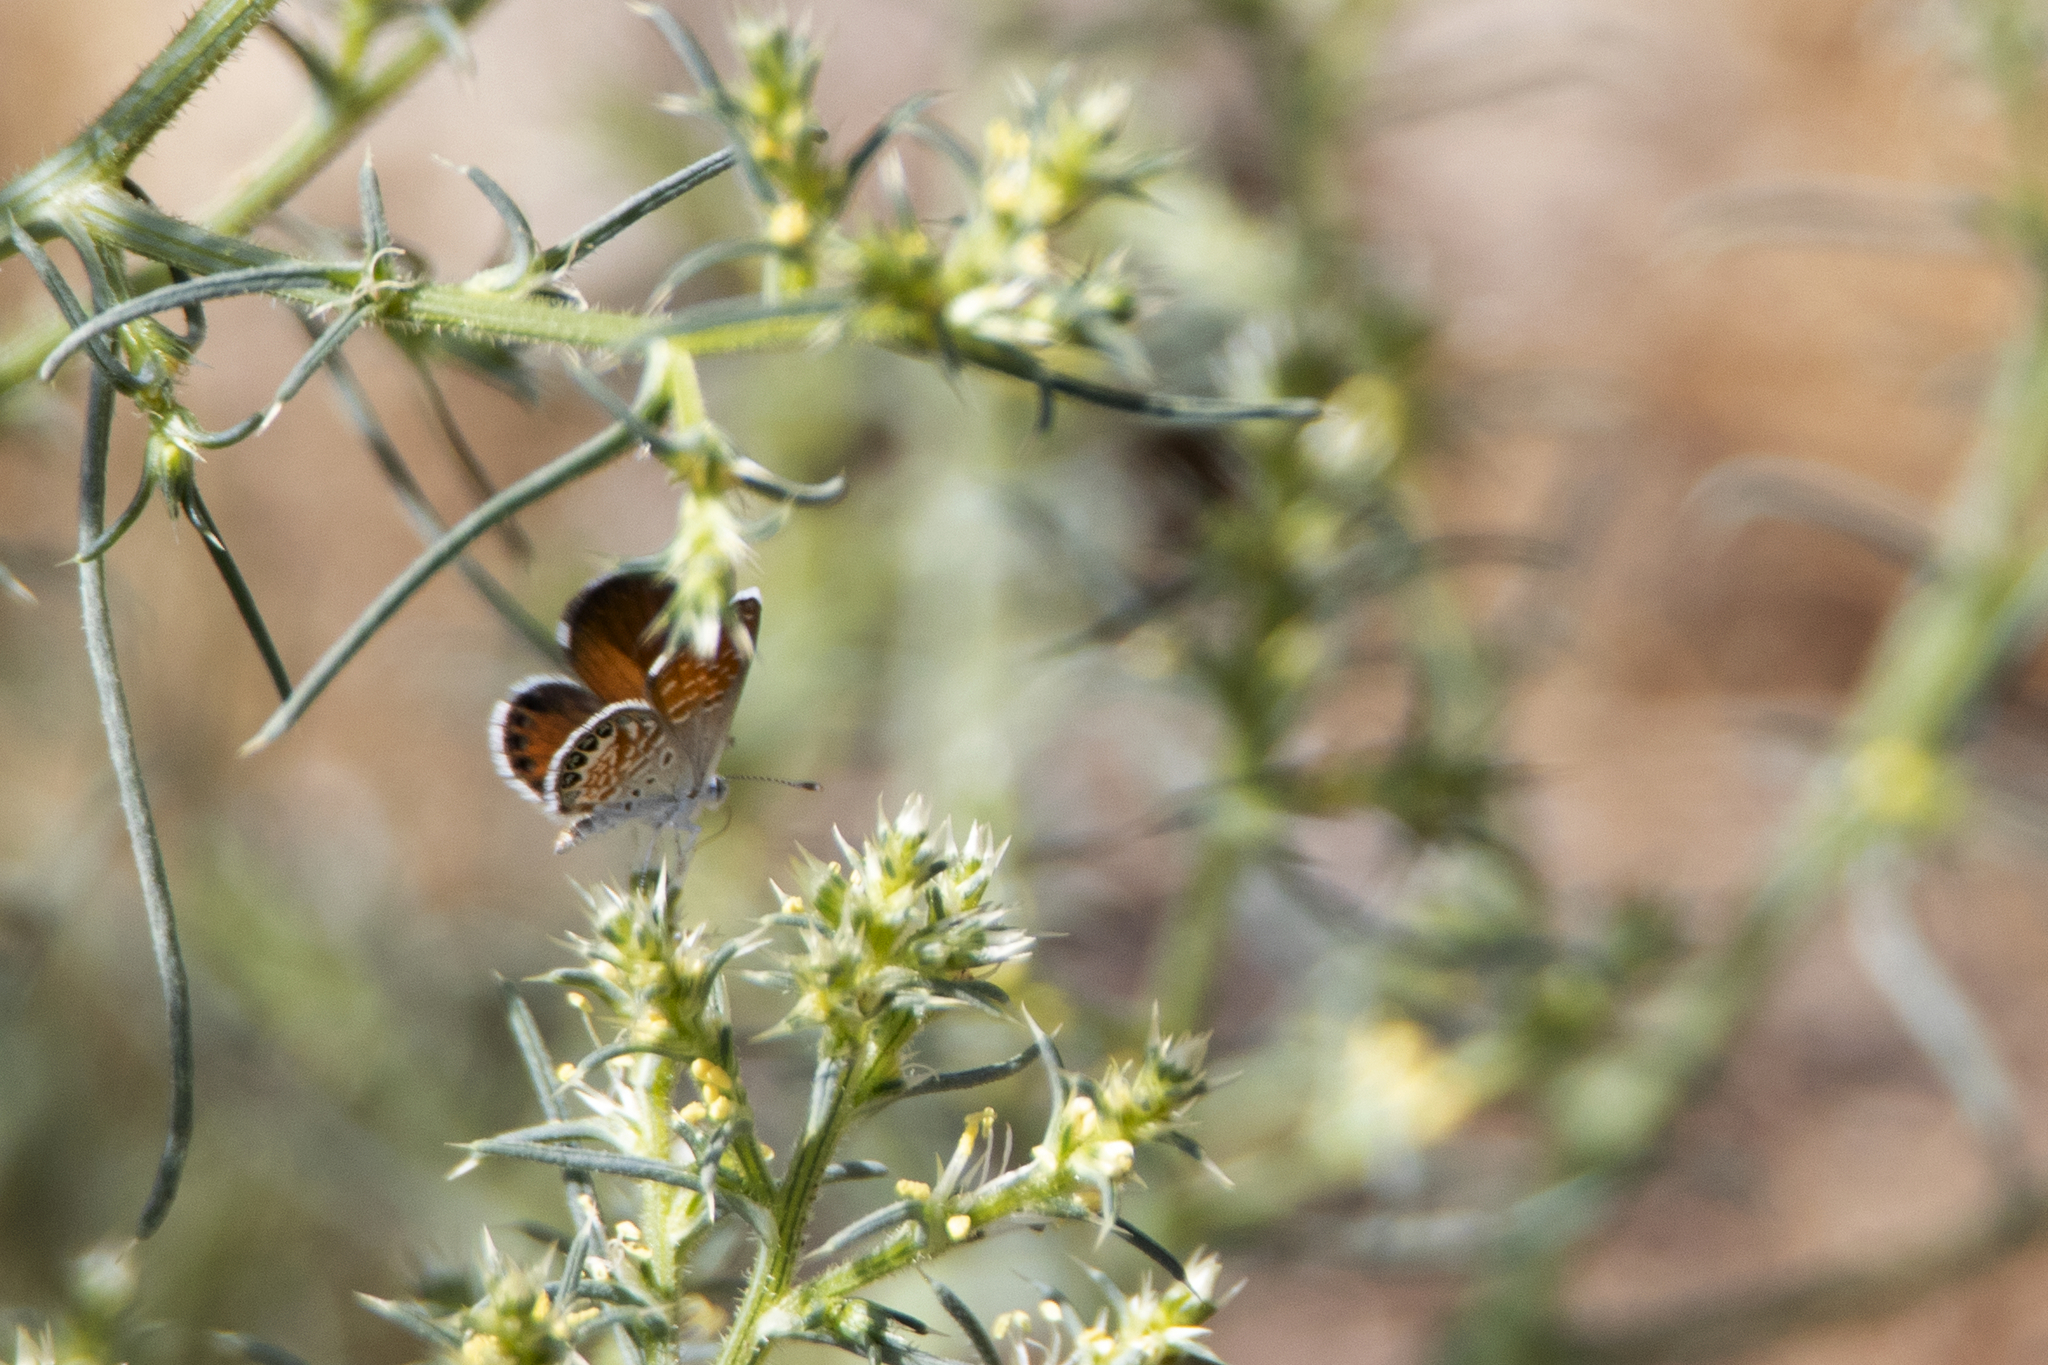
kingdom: Animalia
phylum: Arthropoda
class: Insecta
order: Lepidoptera
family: Lycaenidae
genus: Brephidium
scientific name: Brephidium exilis
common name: Pygmy blue
